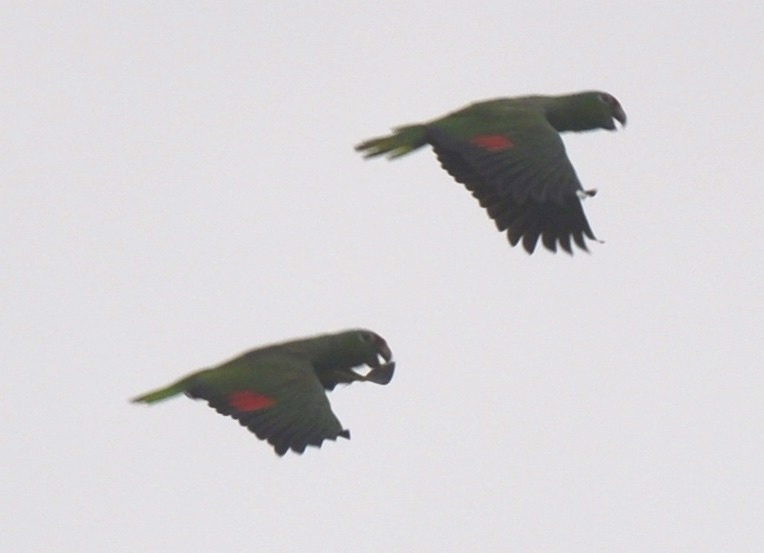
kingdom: Animalia
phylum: Chordata
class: Aves
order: Psittaciformes
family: Psittacidae
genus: Amazona
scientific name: Amazona autumnalis
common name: Red-lored amazon
